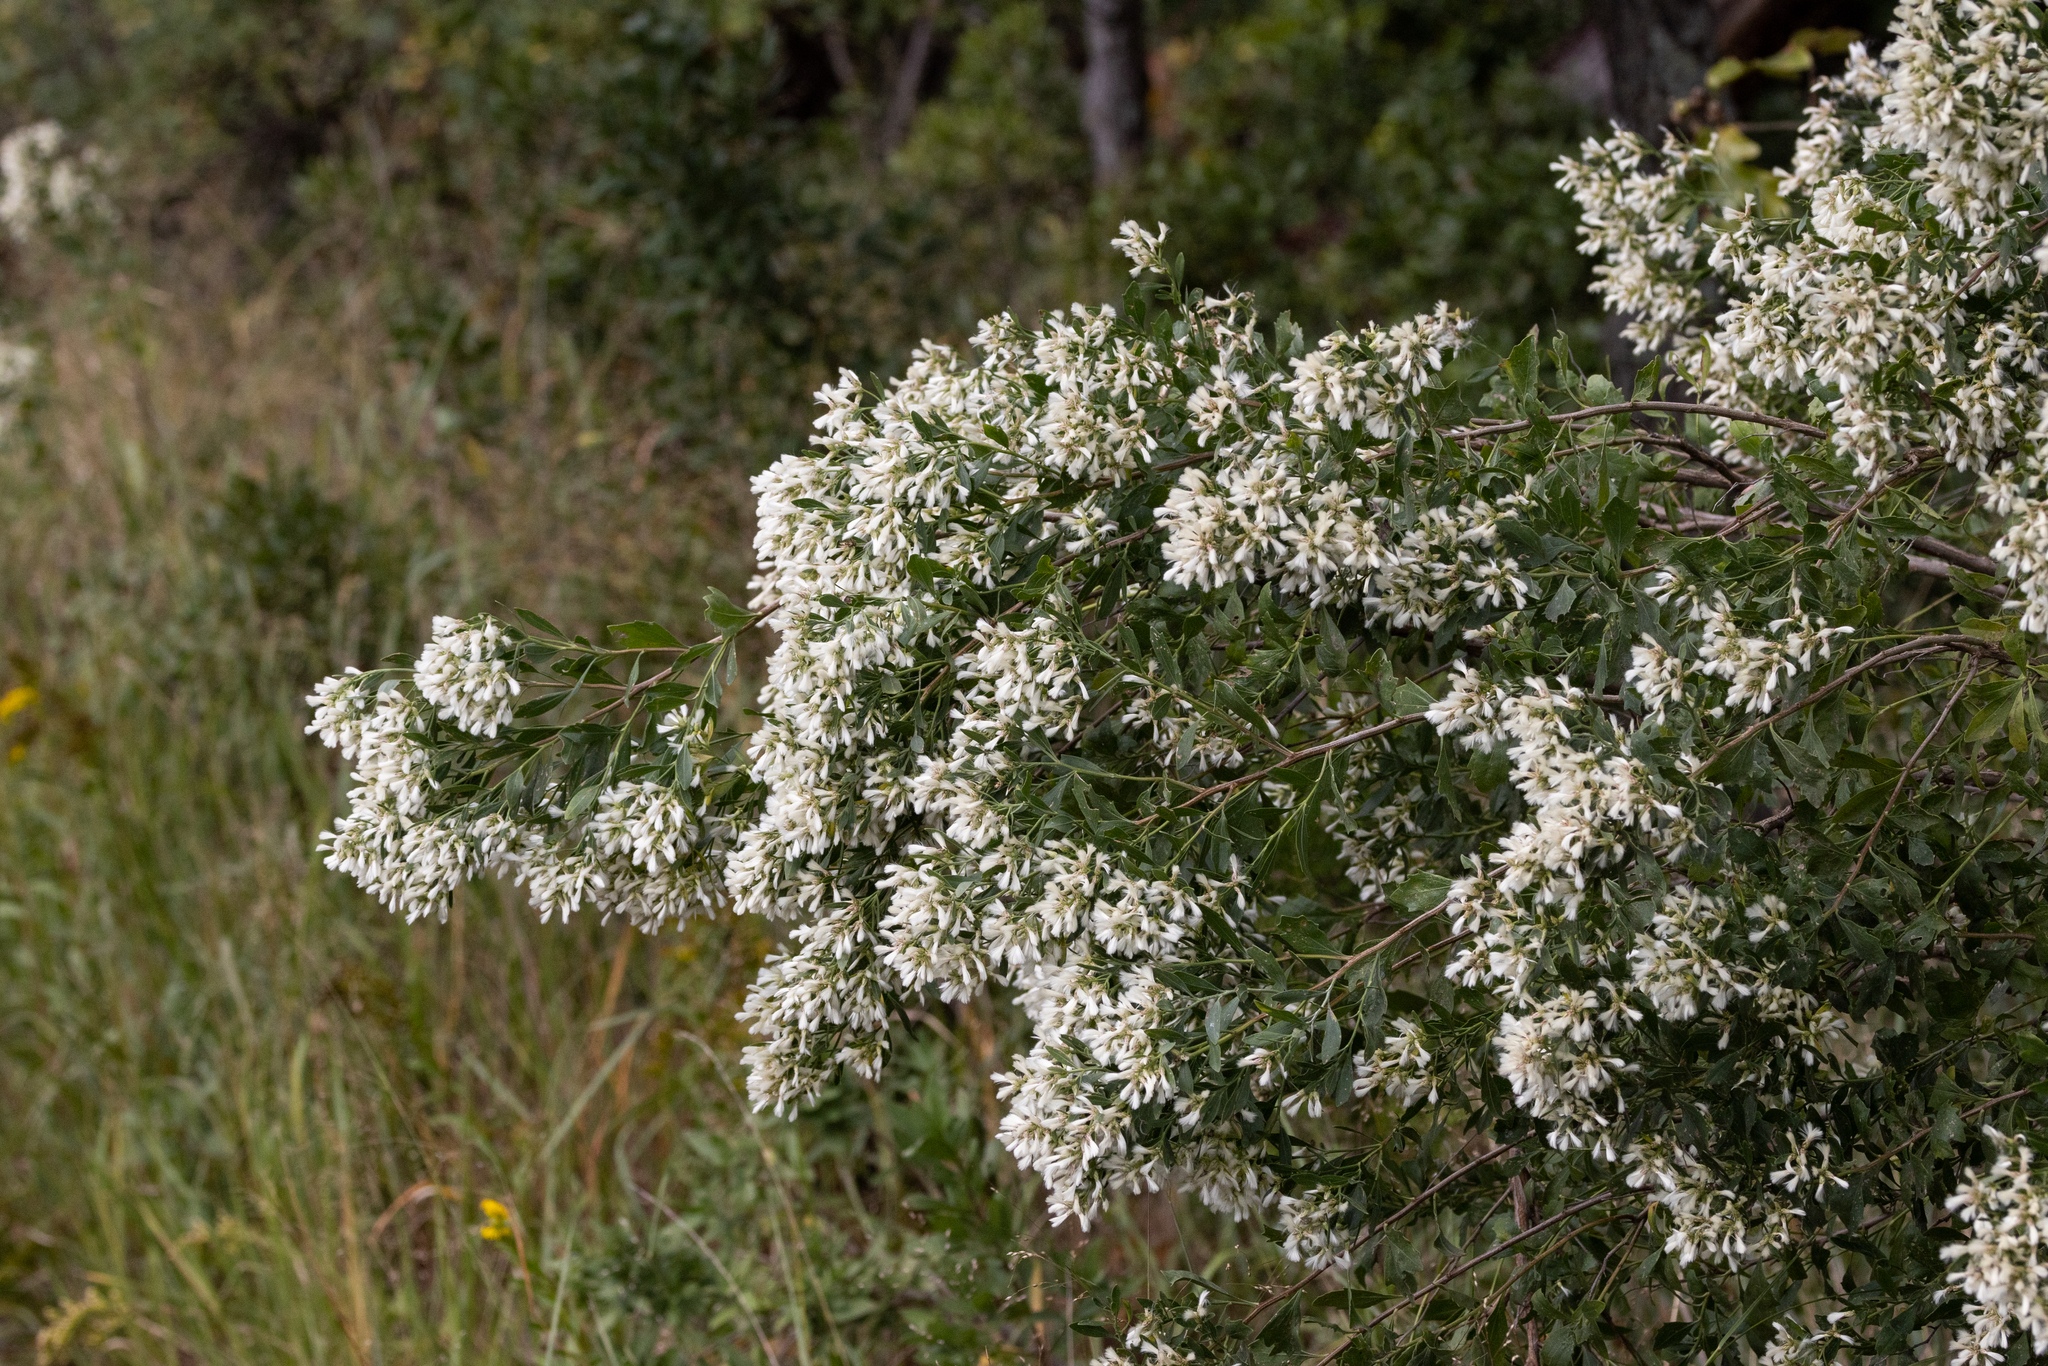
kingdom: Plantae
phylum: Tracheophyta
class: Magnoliopsida
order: Asterales
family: Asteraceae
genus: Baccharis
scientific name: Baccharis halimifolia
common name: Eastern baccharis
